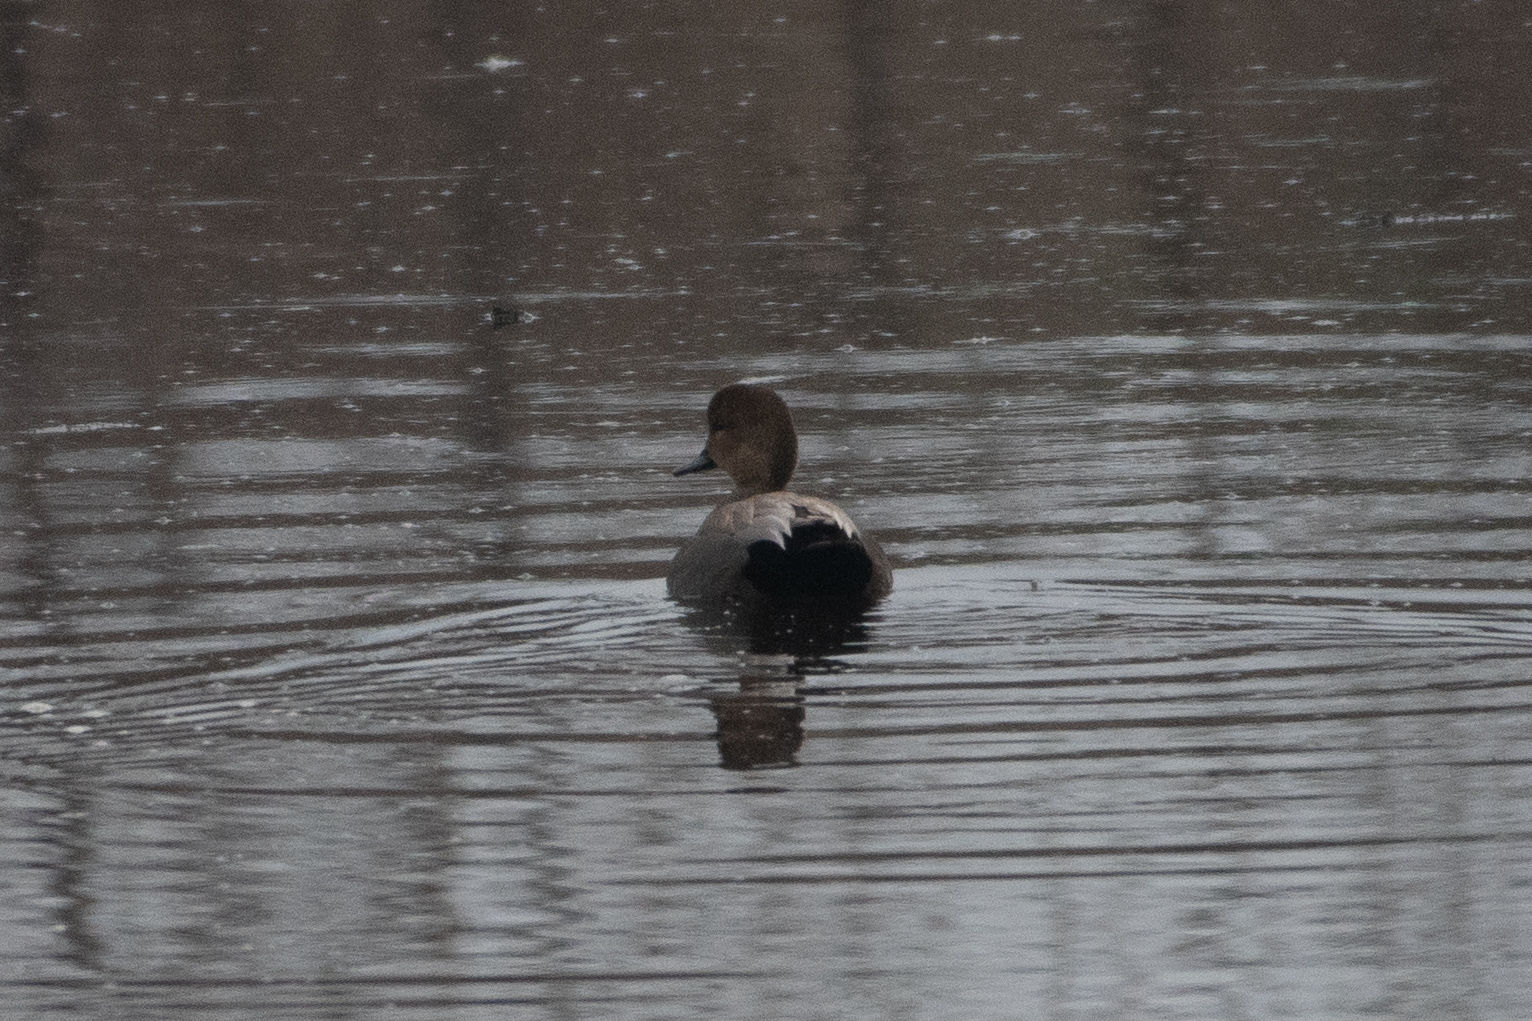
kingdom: Animalia
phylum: Chordata
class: Aves
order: Anseriformes
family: Anatidae
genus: Mareca
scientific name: Mareca strepera
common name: Gadwall
